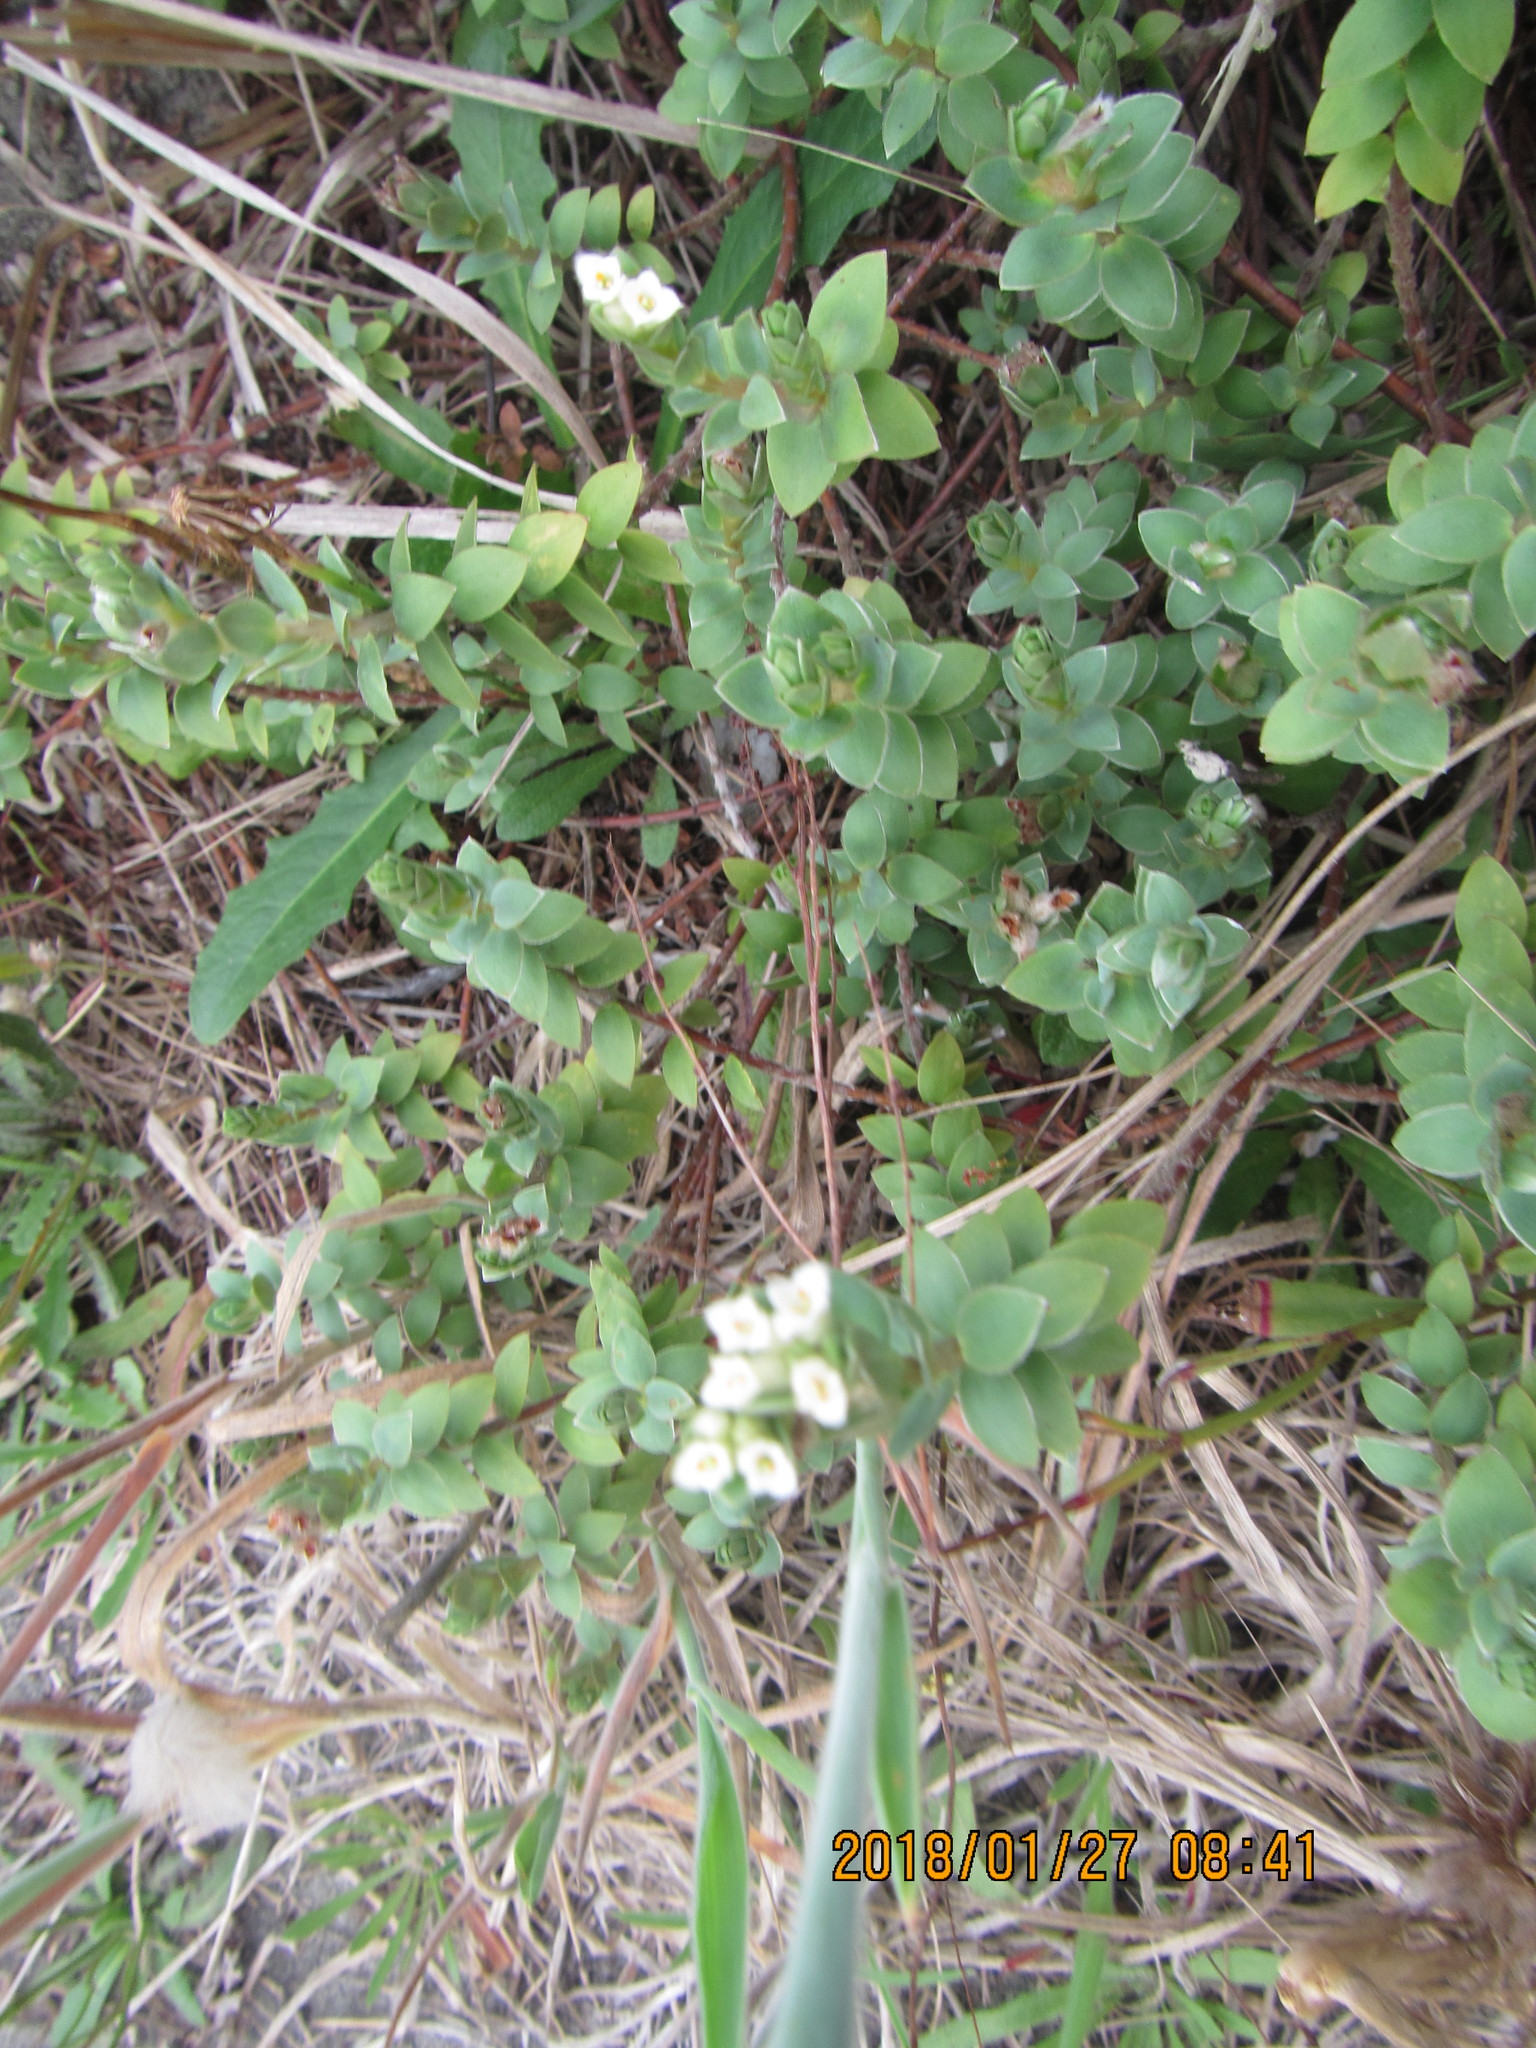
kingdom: Plantae
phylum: Tracheophyta
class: Magnoliopsida
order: Malvales
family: Thymelaeaceae
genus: Pimelea
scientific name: Pimelea villosa
